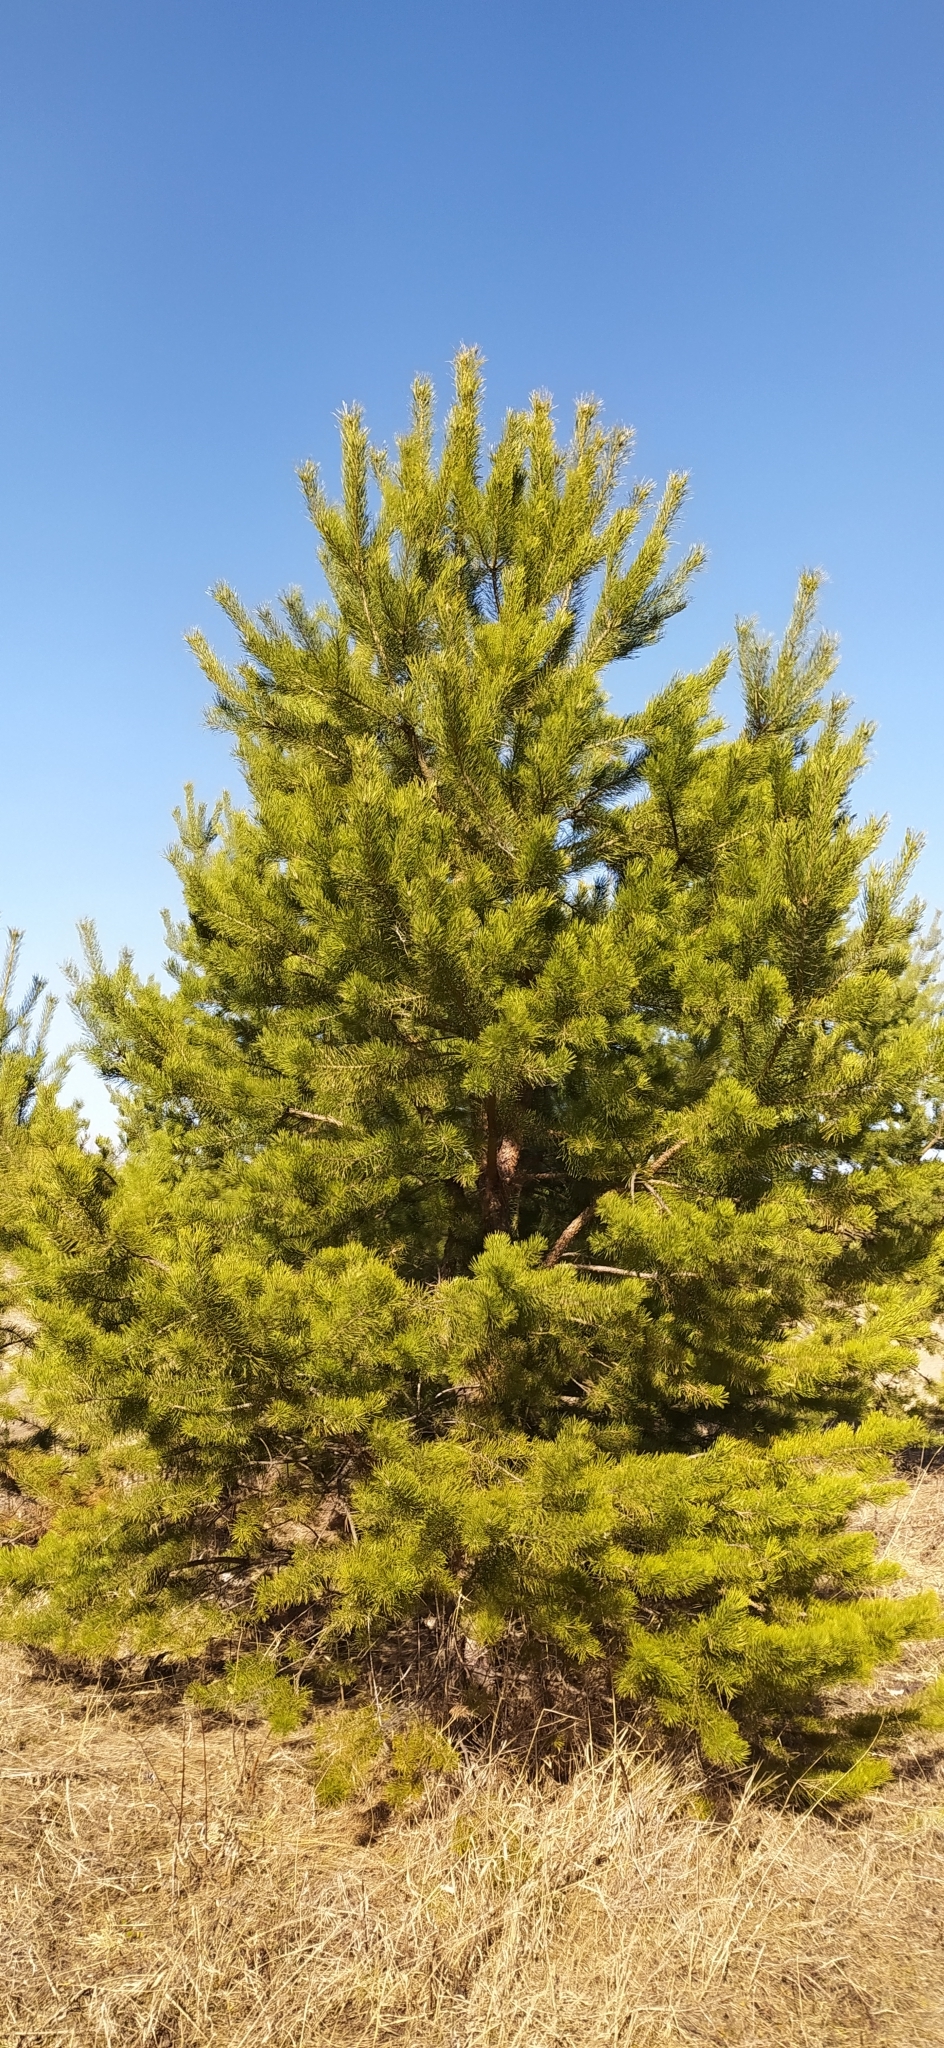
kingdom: Plantae
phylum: Tracheophyta
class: Pinopsida
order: Pinales
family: Pinaceae
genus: Pinus
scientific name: Pinus sylvestris
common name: Scots pine
